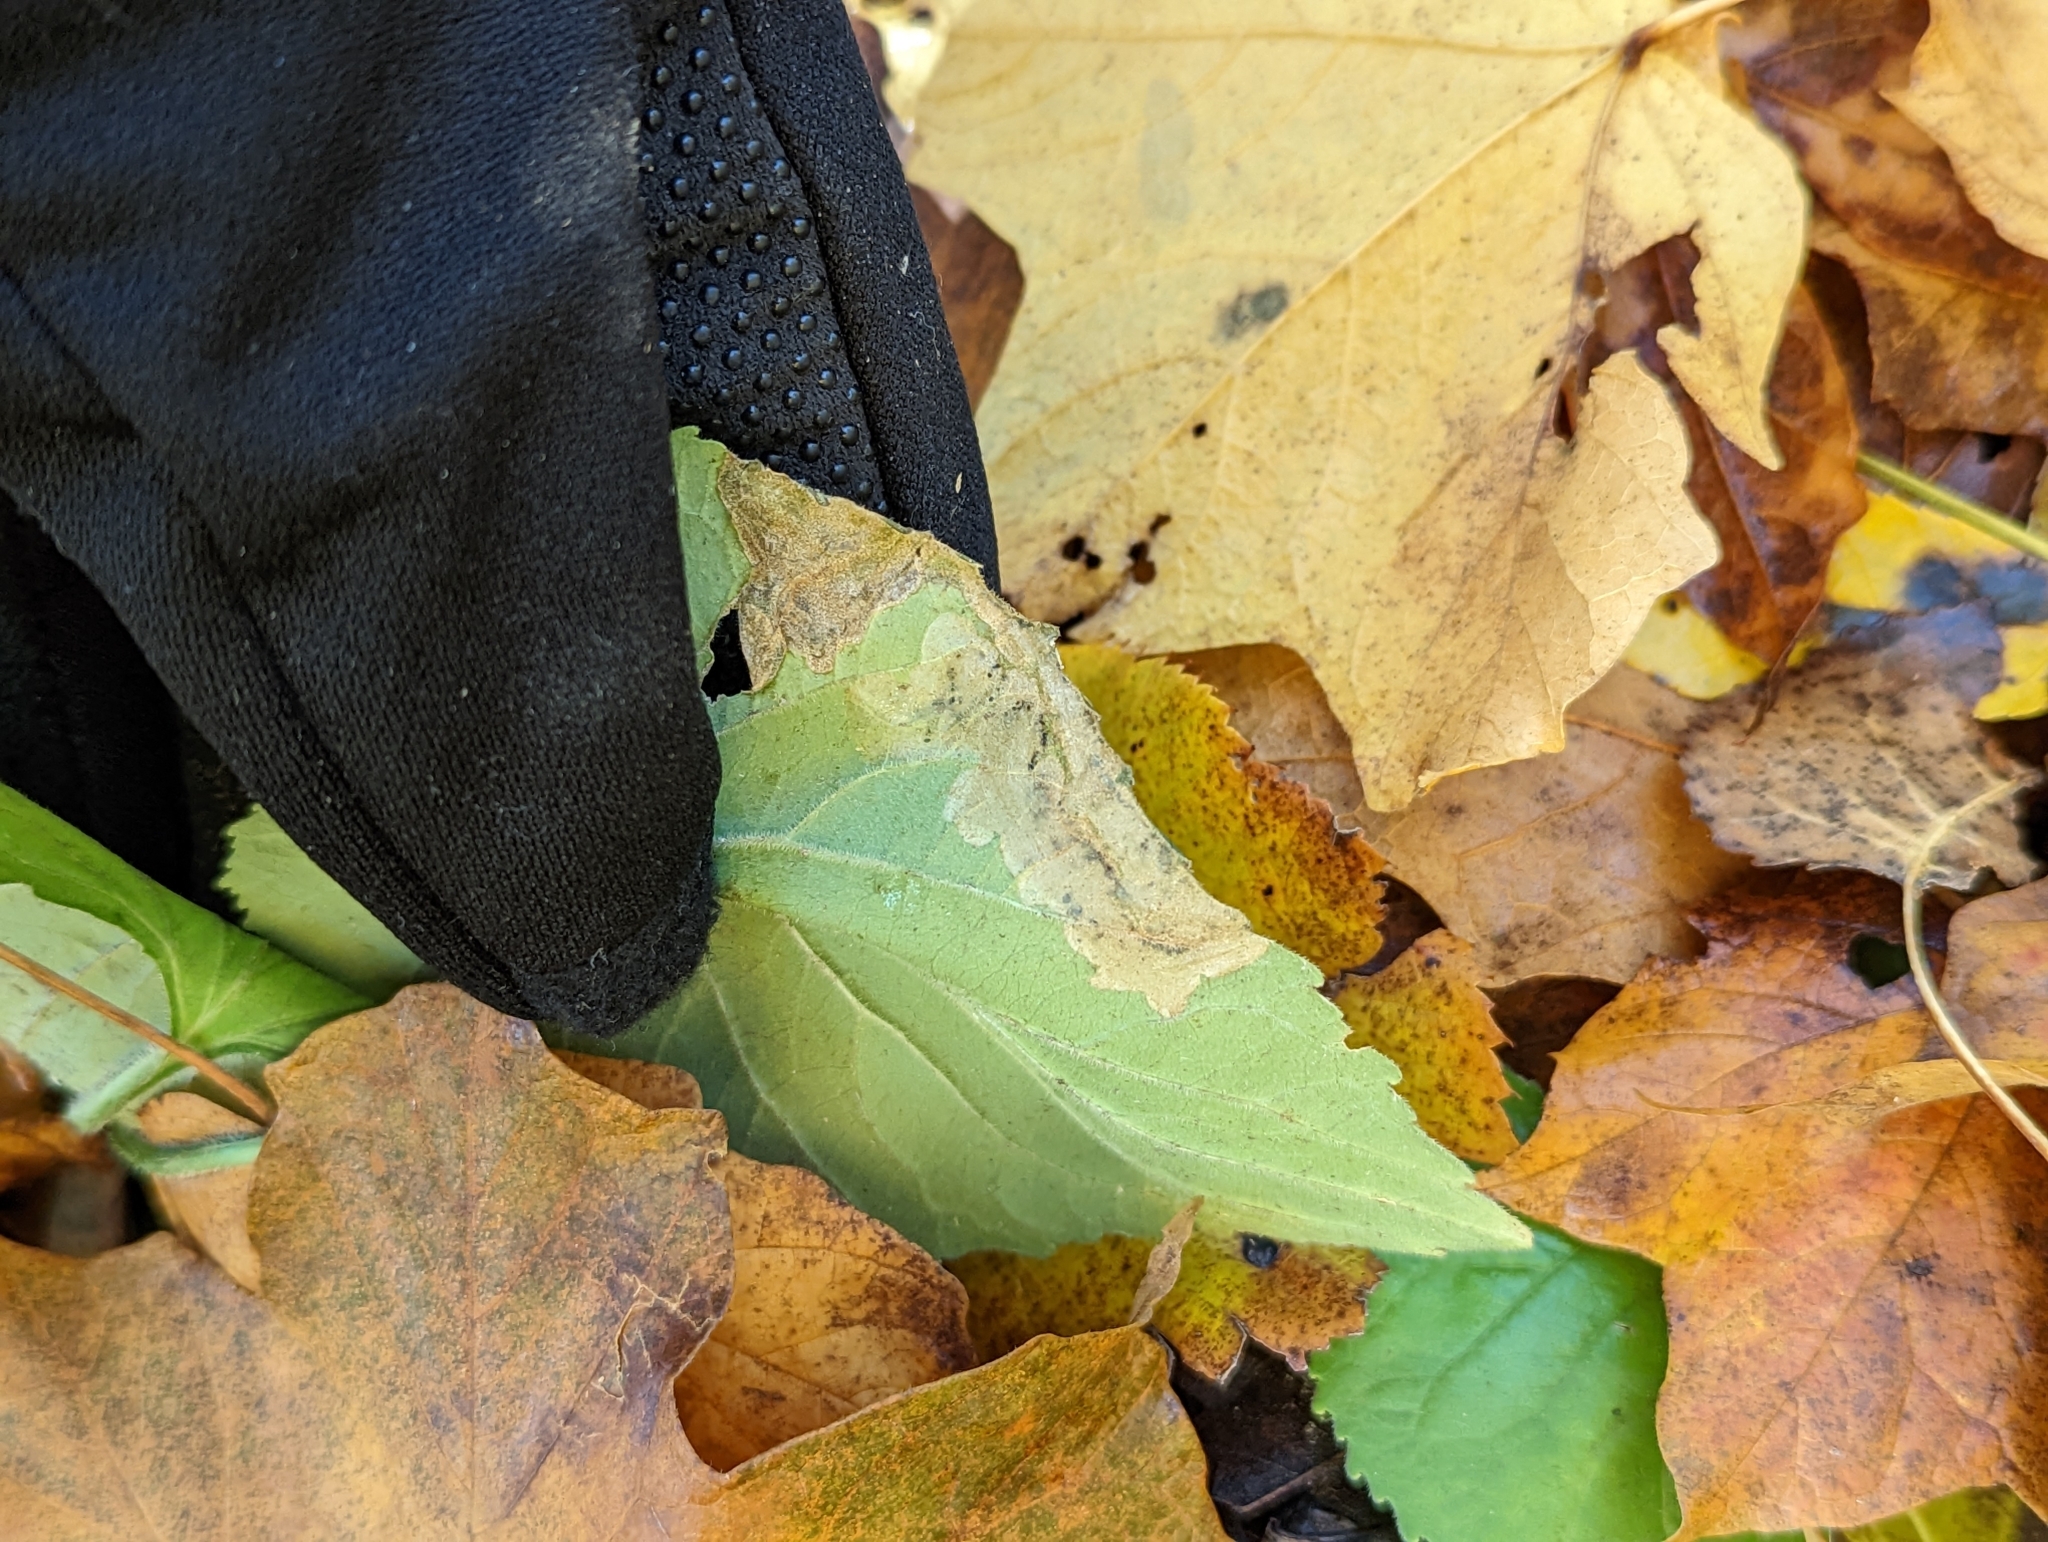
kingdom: Animalia
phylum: Arthropoda
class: Insecta
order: Hymenoptera
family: Tenthredinidae
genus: Nefusa
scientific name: Nefusa ambigua
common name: Violet leafmining sawfly
